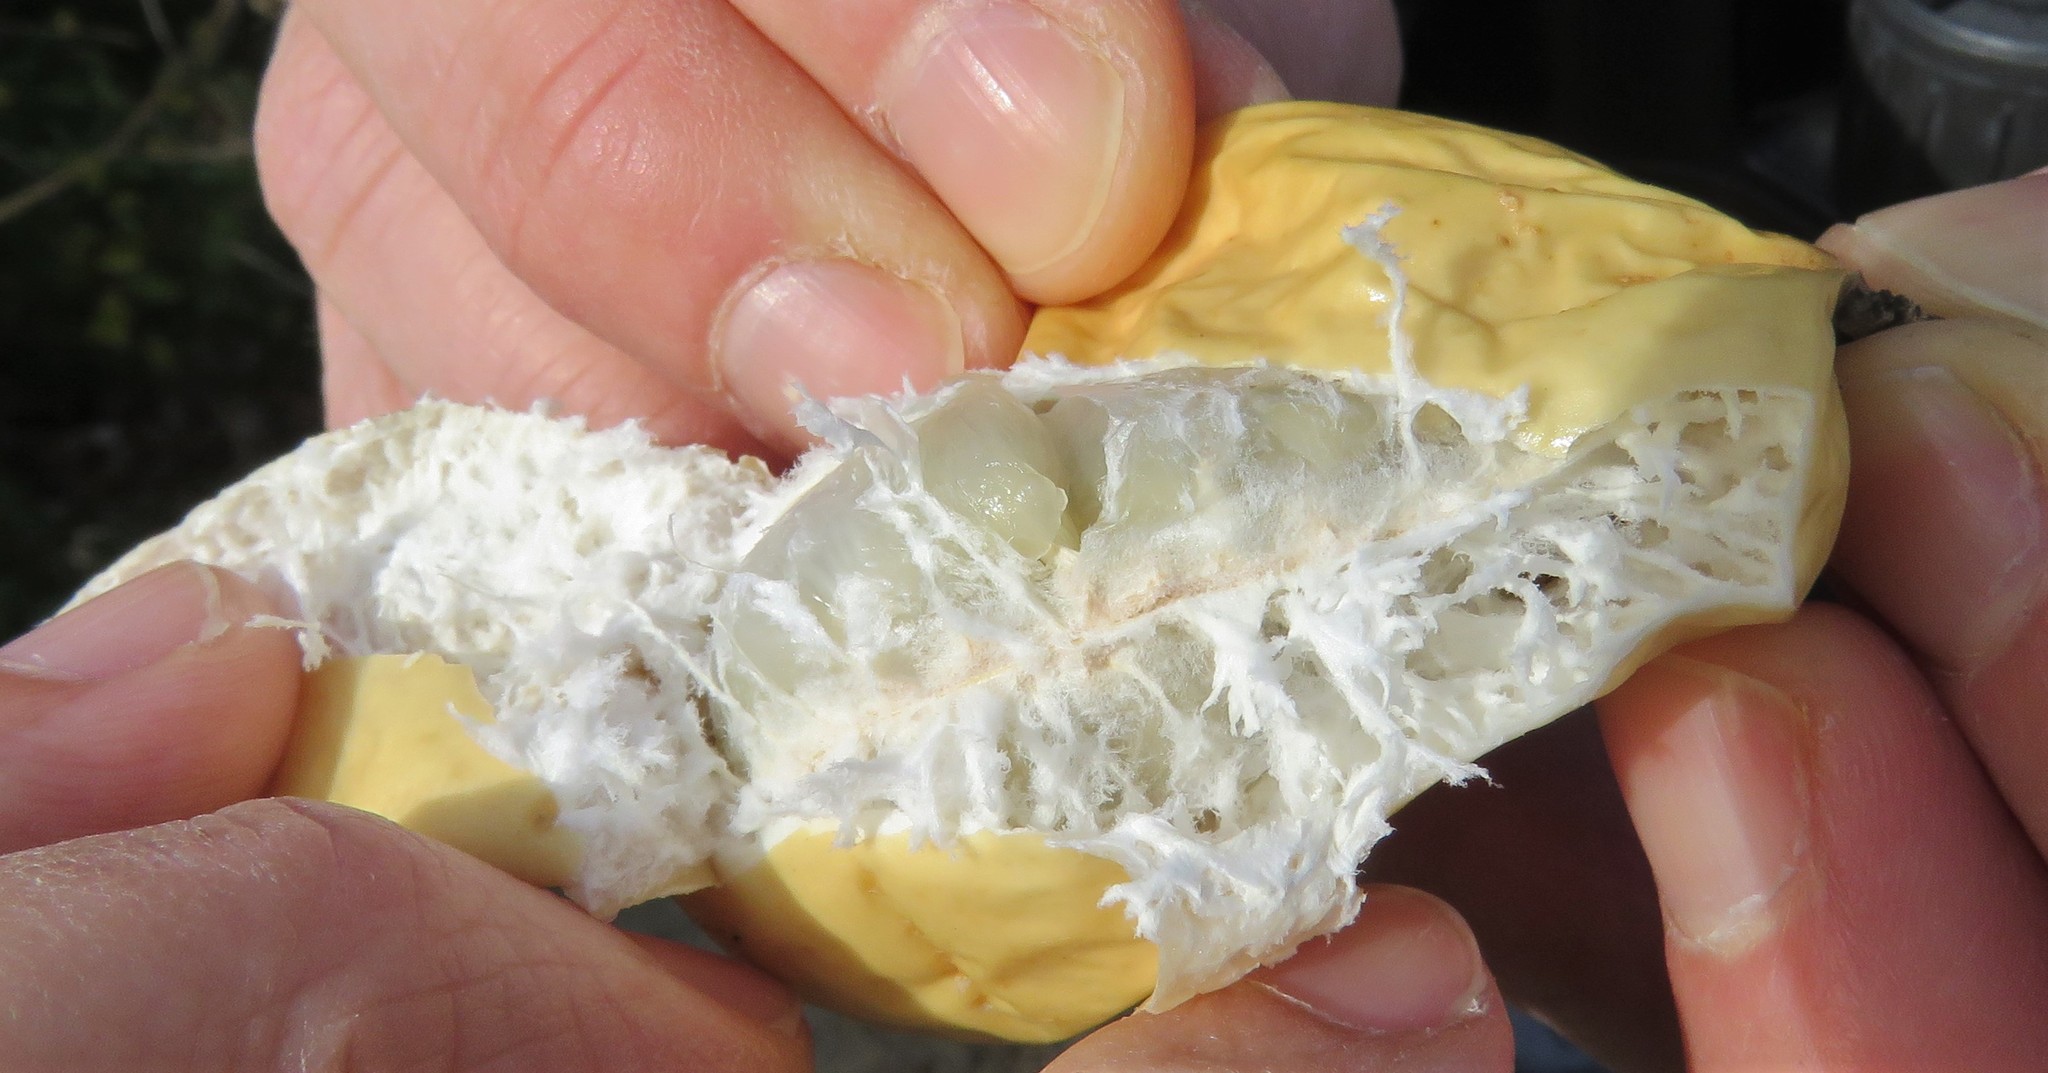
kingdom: Plantae
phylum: Tracheophyta
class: Magnoliopsida
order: Malpighiales
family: Passifloraceae
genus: Passiflora
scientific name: Passiflora incarnata
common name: Apricot-vine
